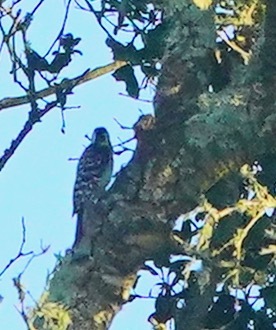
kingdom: Animalia
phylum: Chordata
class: Aves
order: Piciformes
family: Picidae
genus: Dryobates
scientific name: Dryobates nuttallii
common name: Nuttall's woodpecker
